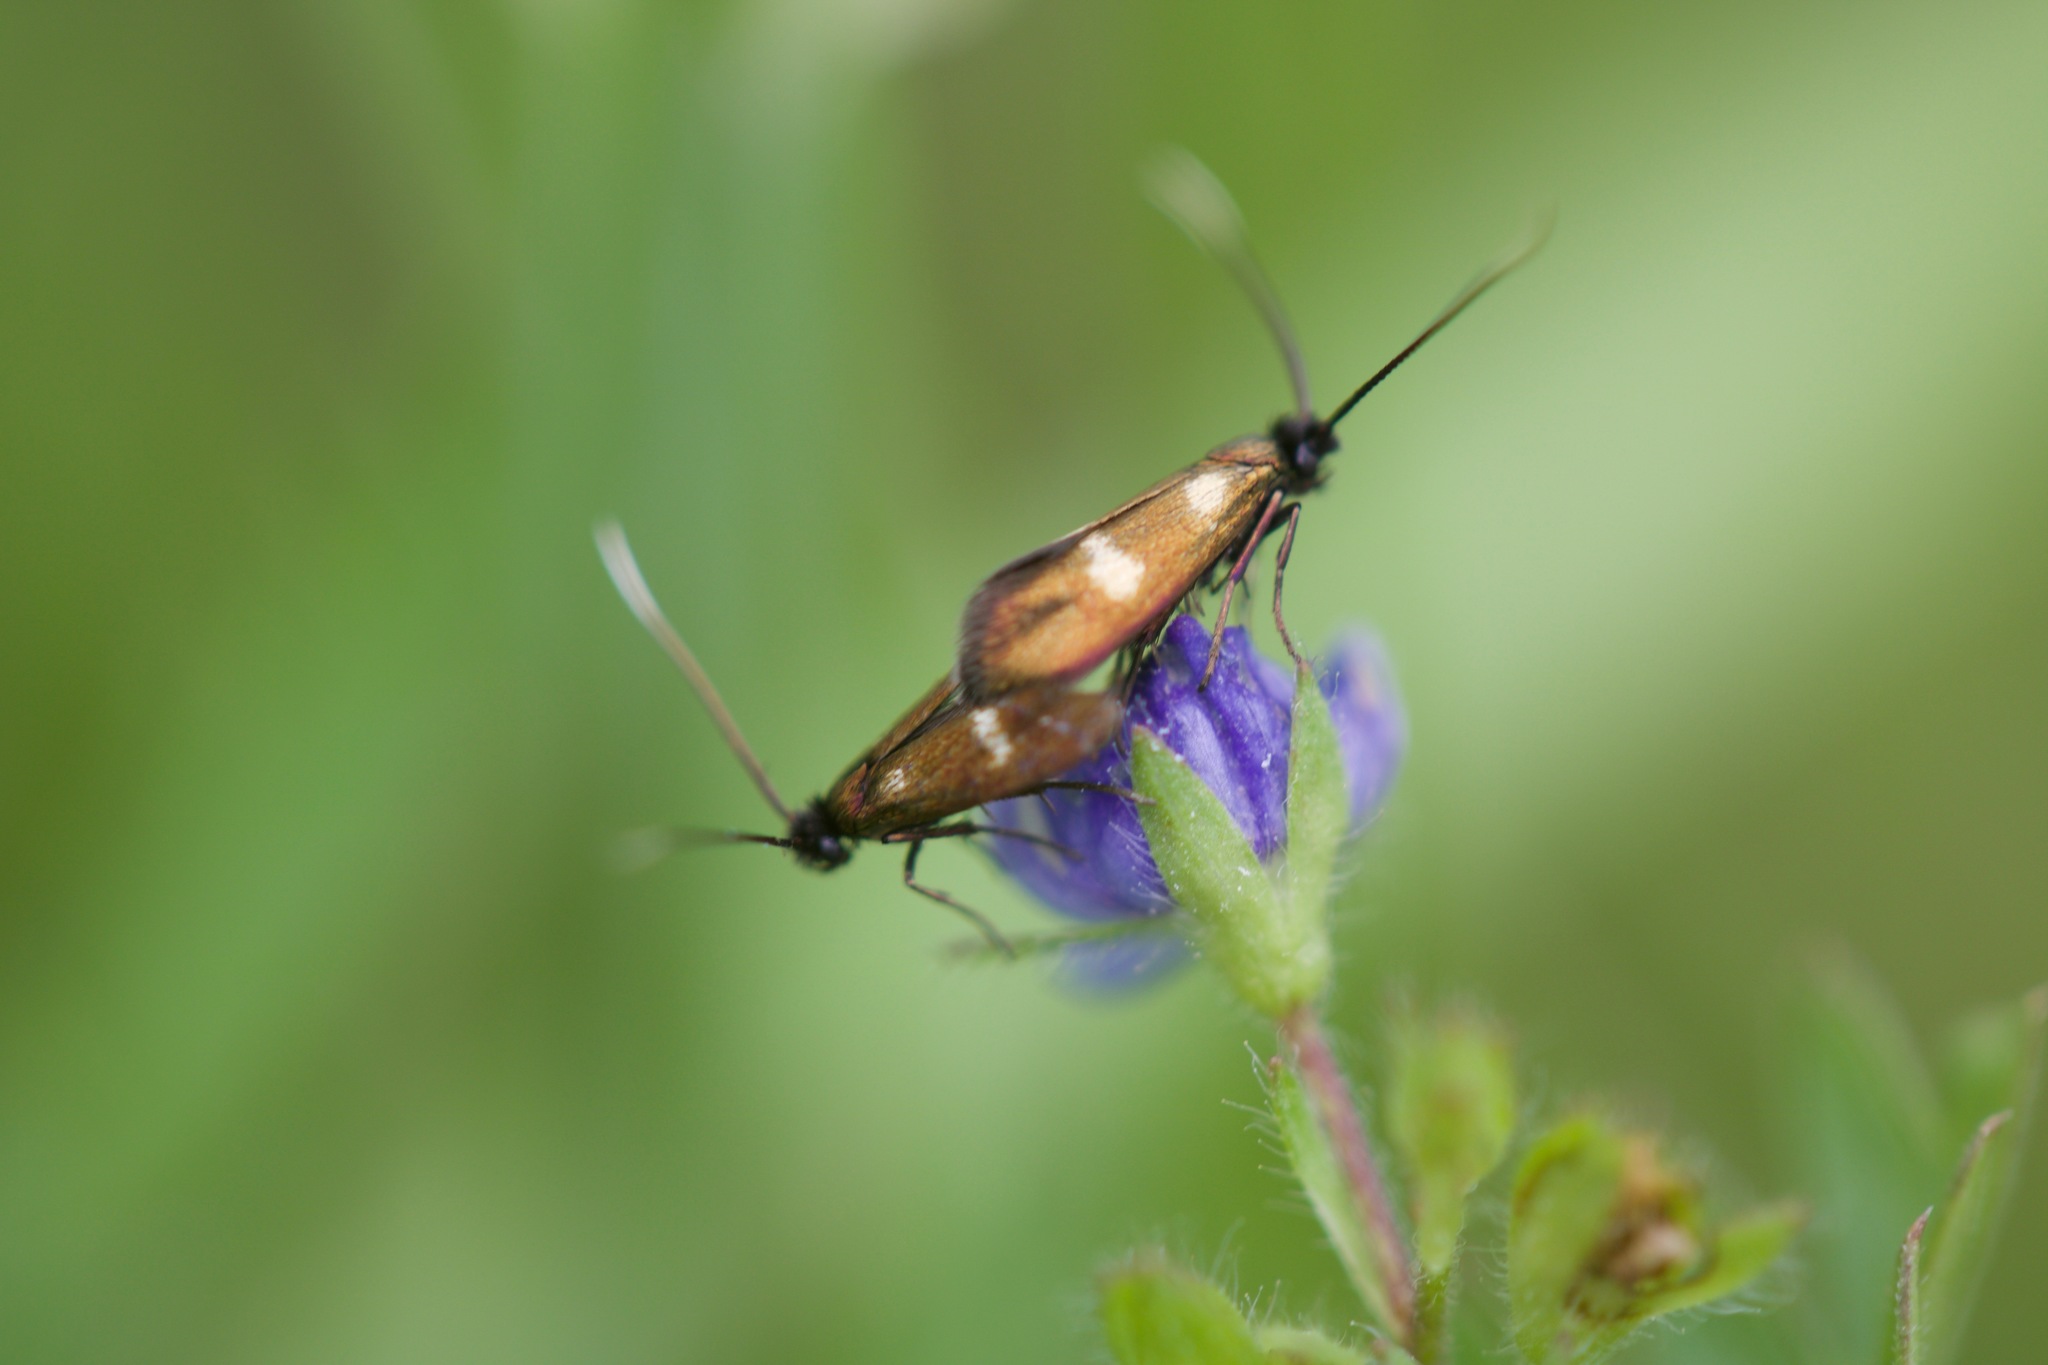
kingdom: Animalia
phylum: Arthropoda
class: Insecta
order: Lepidoptera
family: Adelidae
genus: Cauchas
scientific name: Cauchas fibulella
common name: Little long-horn
